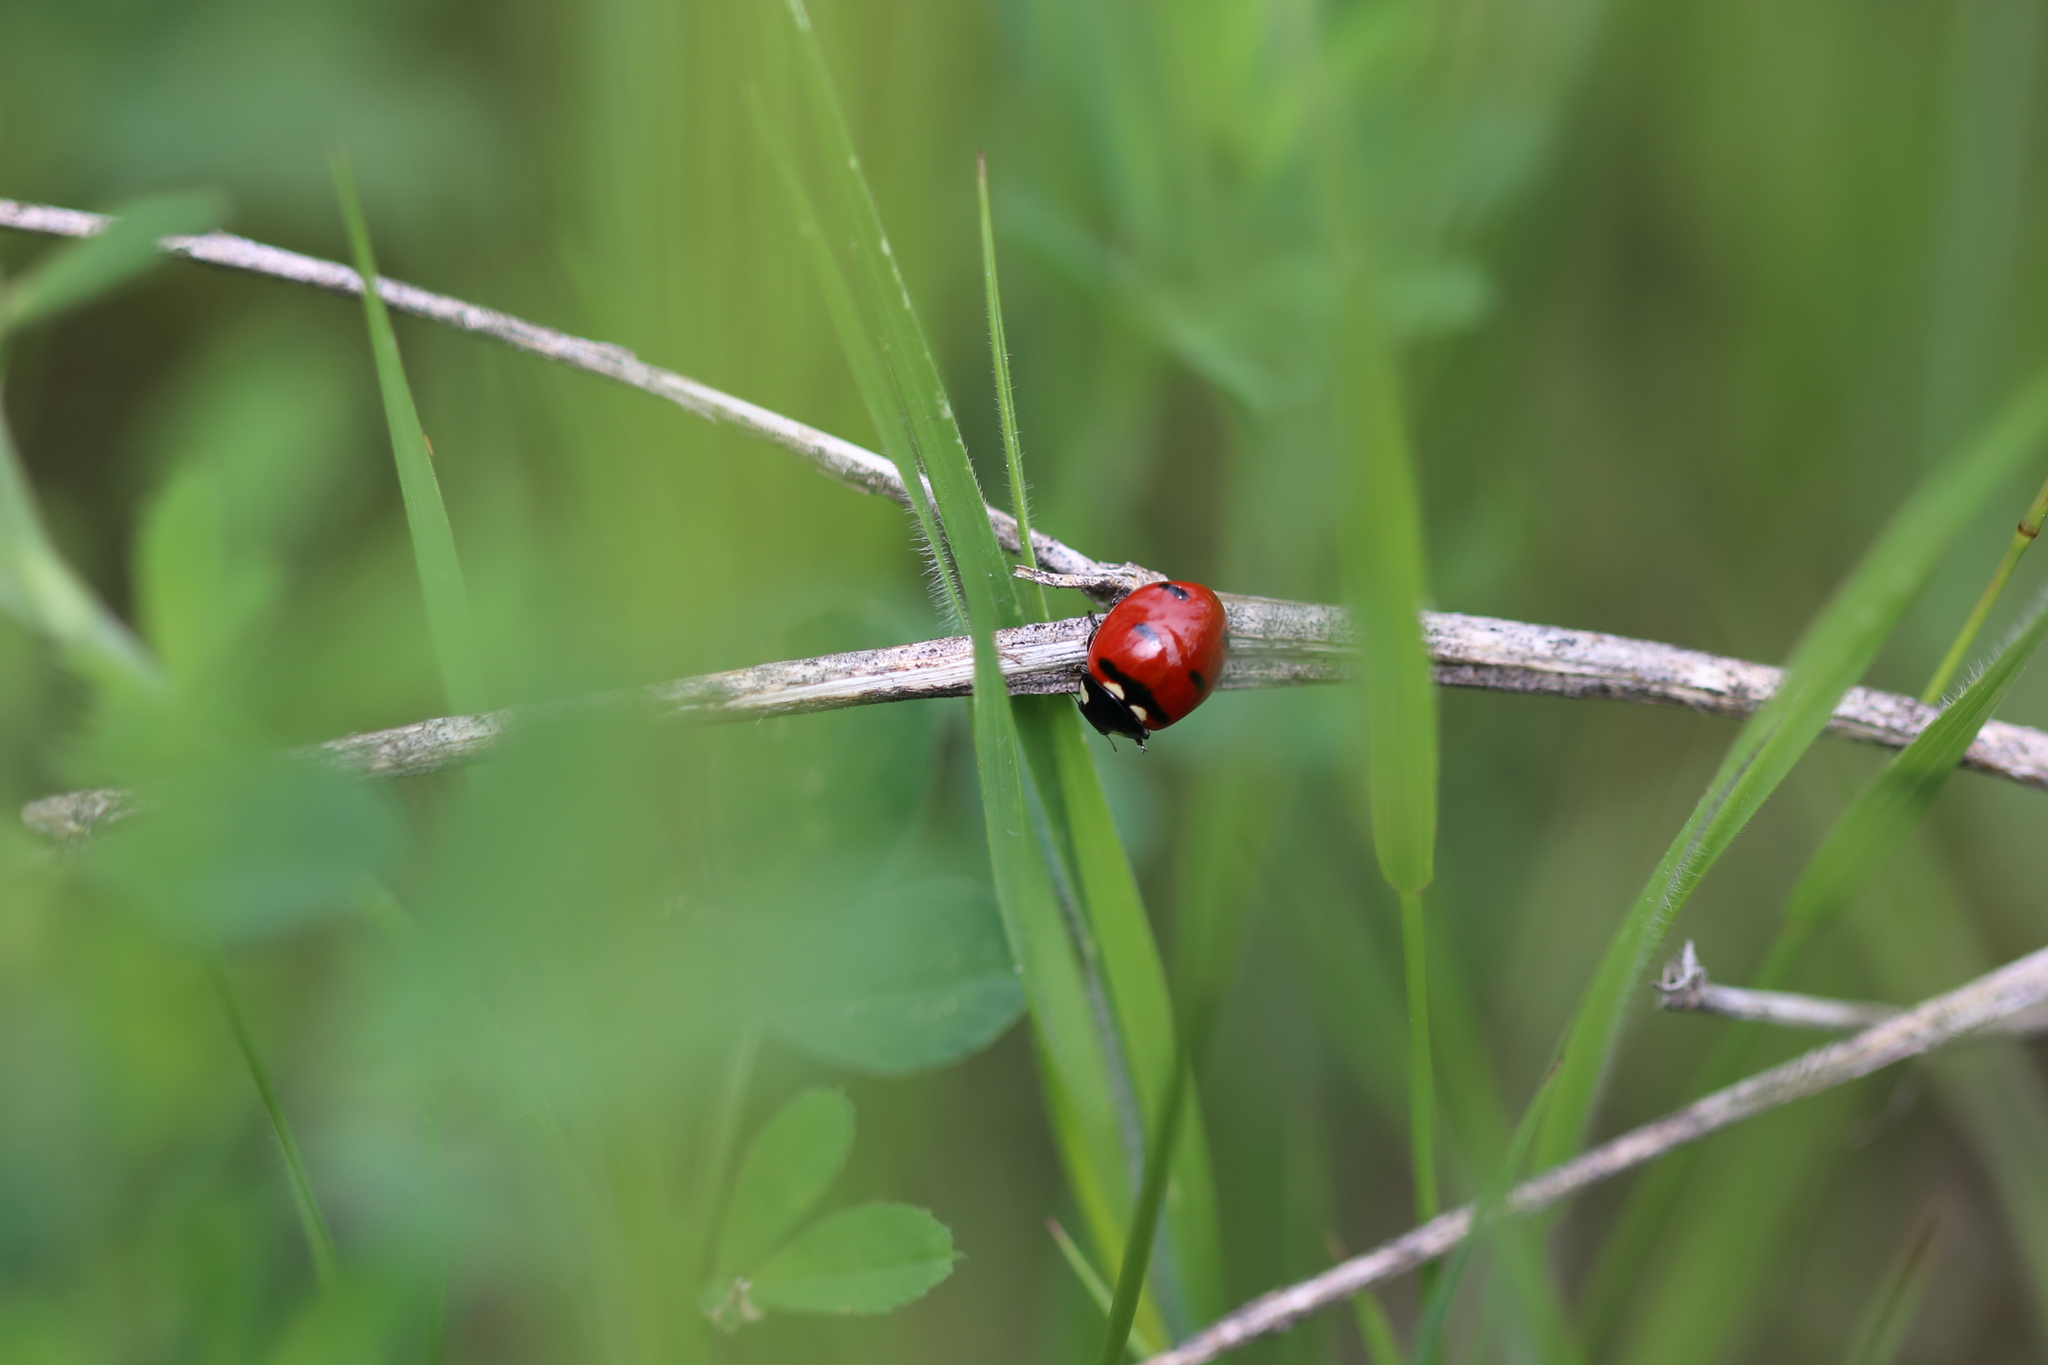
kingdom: Animalia
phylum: Arthropoda
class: Insecta
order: Coleoptera
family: Coccinellidae
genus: Coccinella
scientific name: Coccinella transversoguttata
